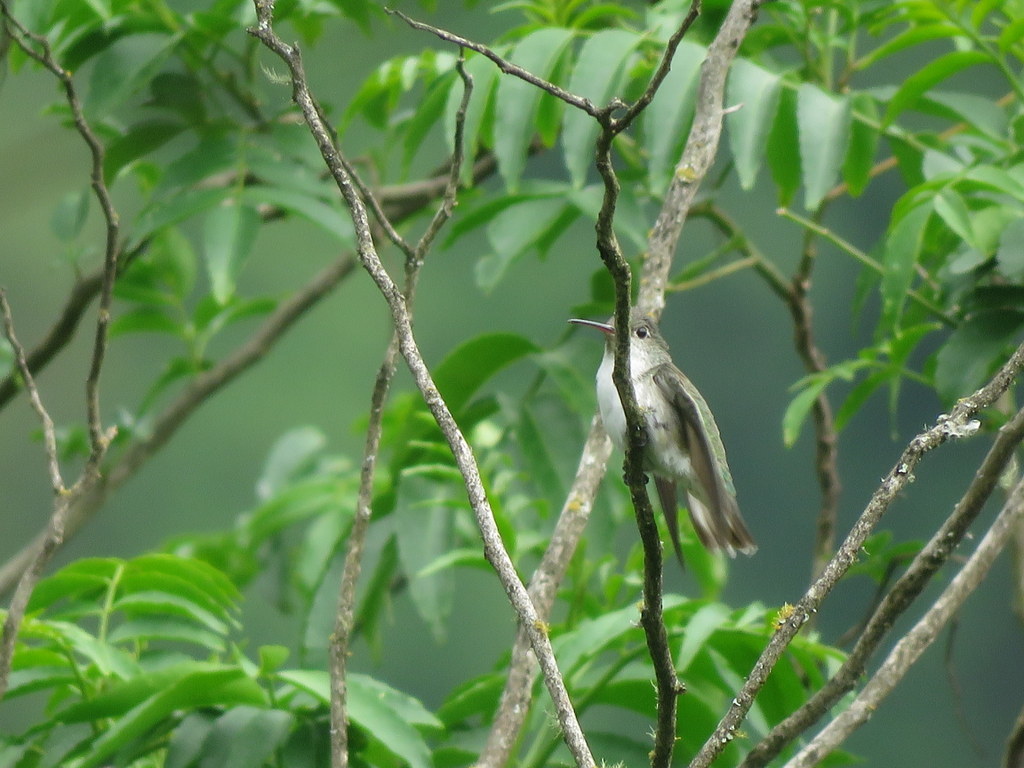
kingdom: Animalia
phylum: Chordata
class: Aves
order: Apodiformes
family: Trochilidae
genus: Elliotomyia
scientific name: Elliotomyia chionogaster
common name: White-bellied hummingbird
